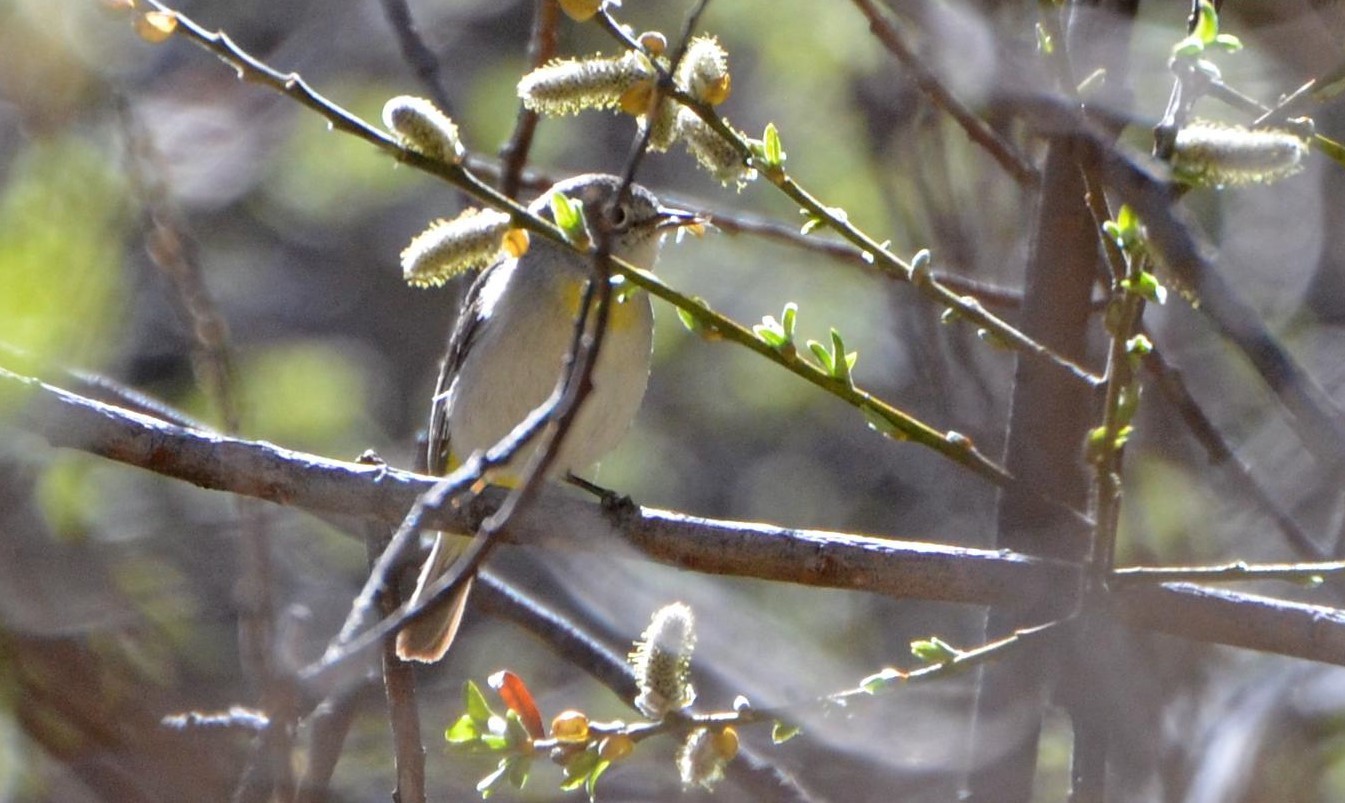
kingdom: Animalia
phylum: Chordata
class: Aves
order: Passeriformes
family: Parulidae
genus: Leiothlypis
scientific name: Leiothlypis virginiae
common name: Virginia's warbler
